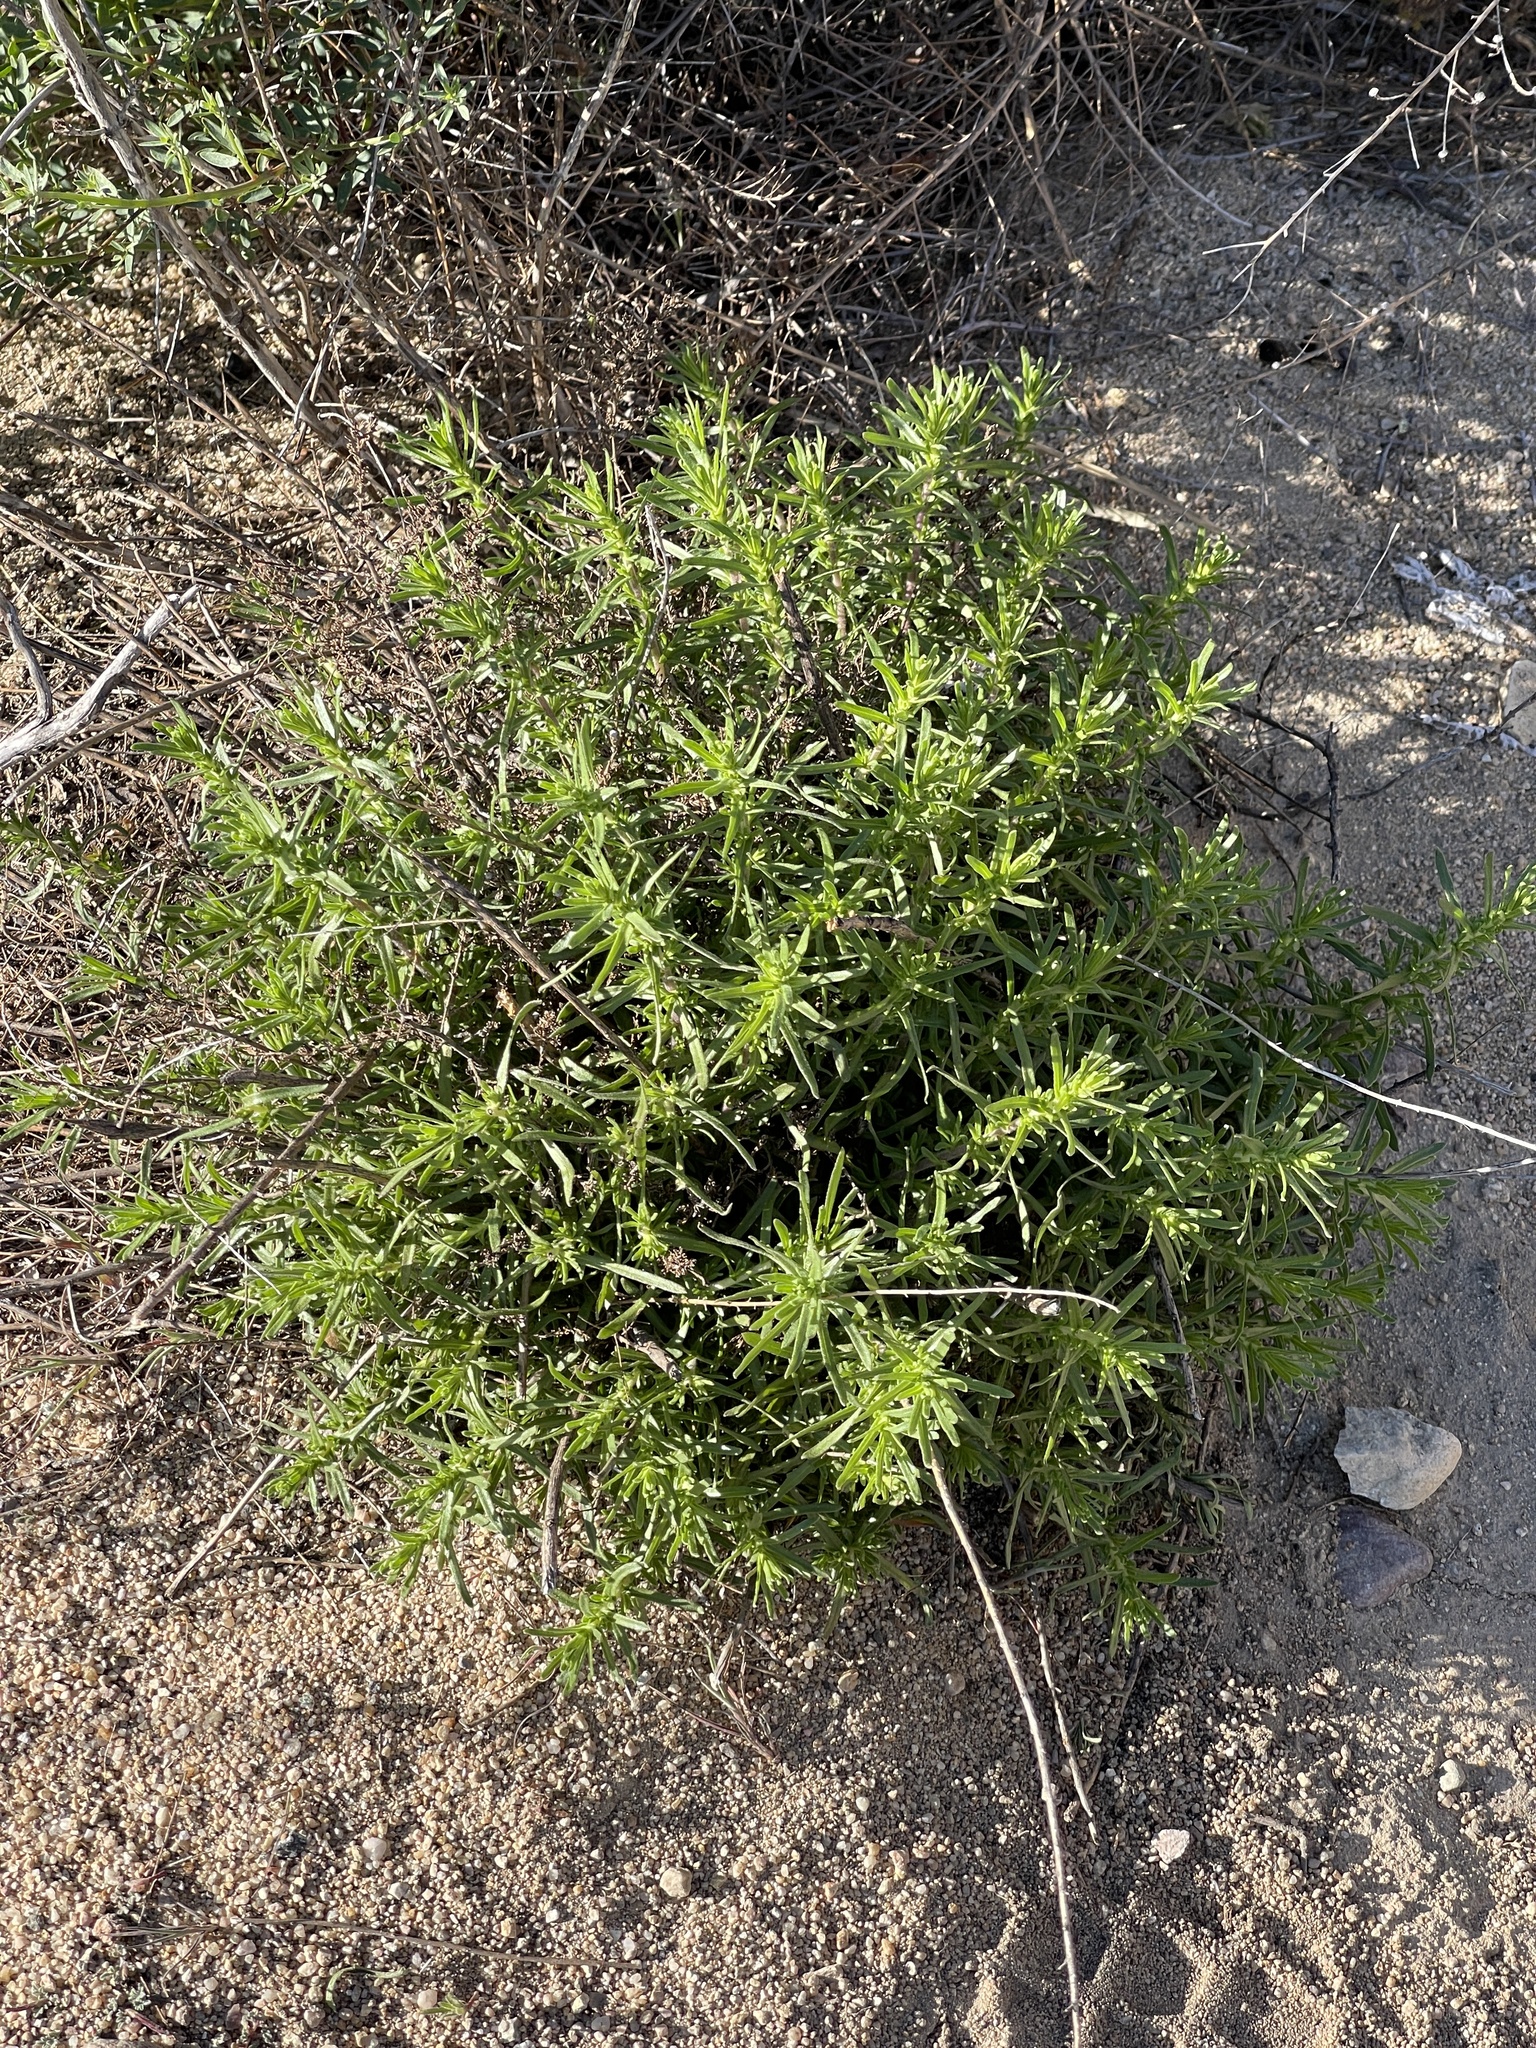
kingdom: Plantae
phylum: Tracheophyta
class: Magnoliopsida
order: Asterales
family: Asteraceae
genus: Deinandra
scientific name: Deinandra minthornii
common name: Santa susana tarplant
